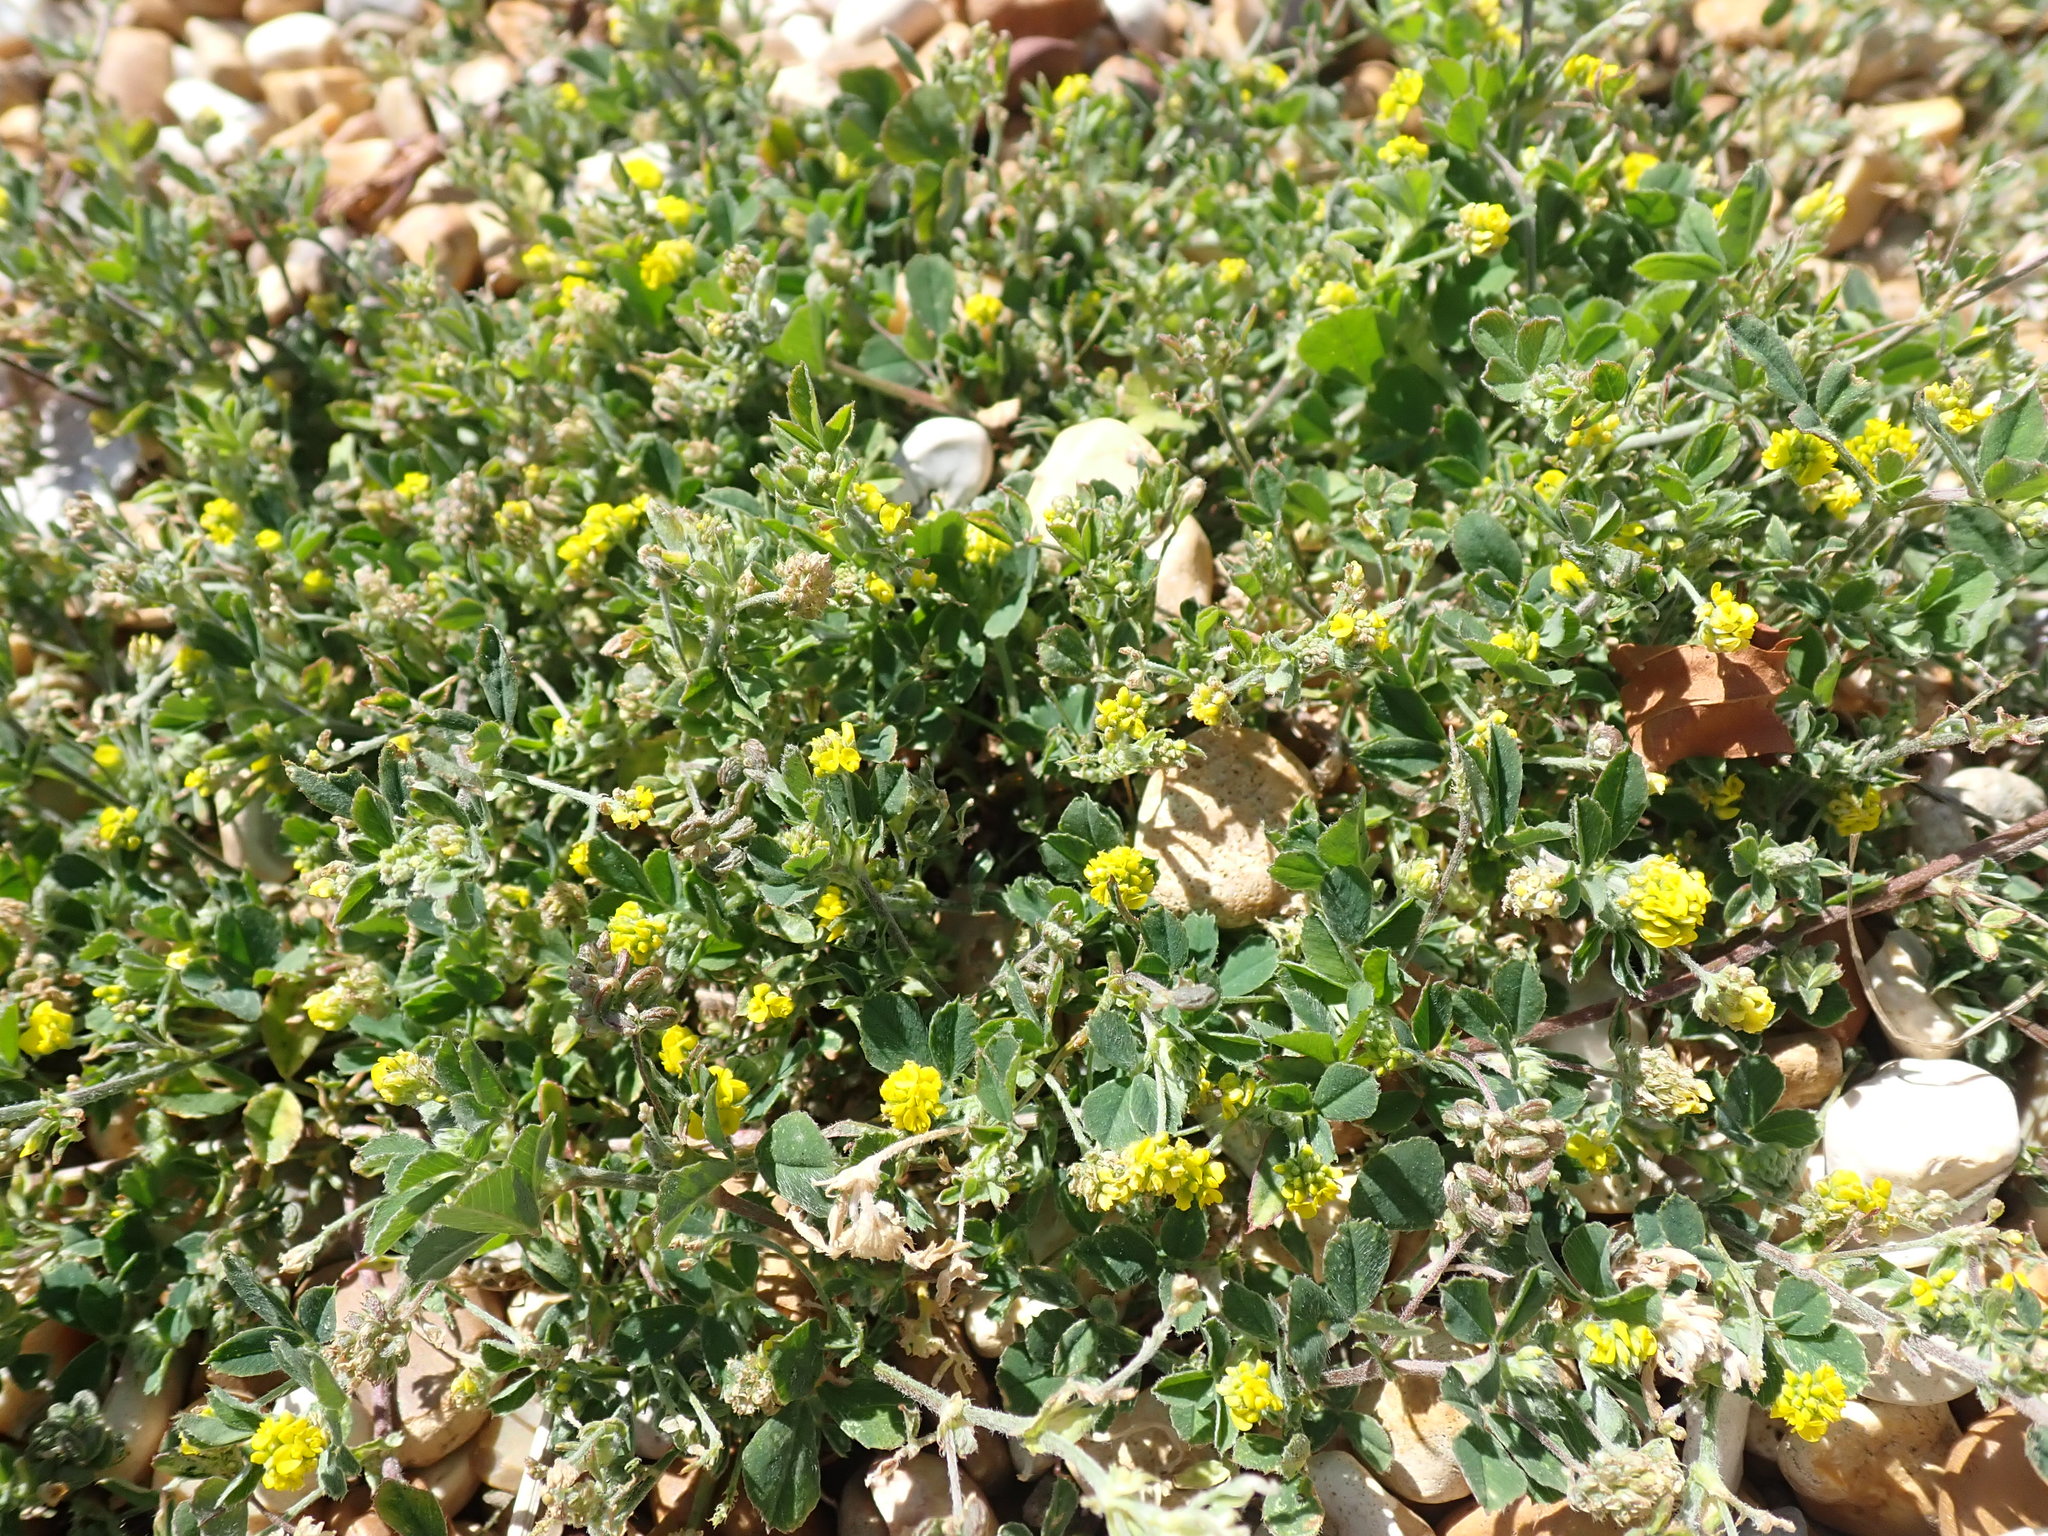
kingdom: Plantae
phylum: Tracheophyta
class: Magnoliopsida
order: Fabales
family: Fabaceae
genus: Medicago
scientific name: Medicago lupulina
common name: Black medick
